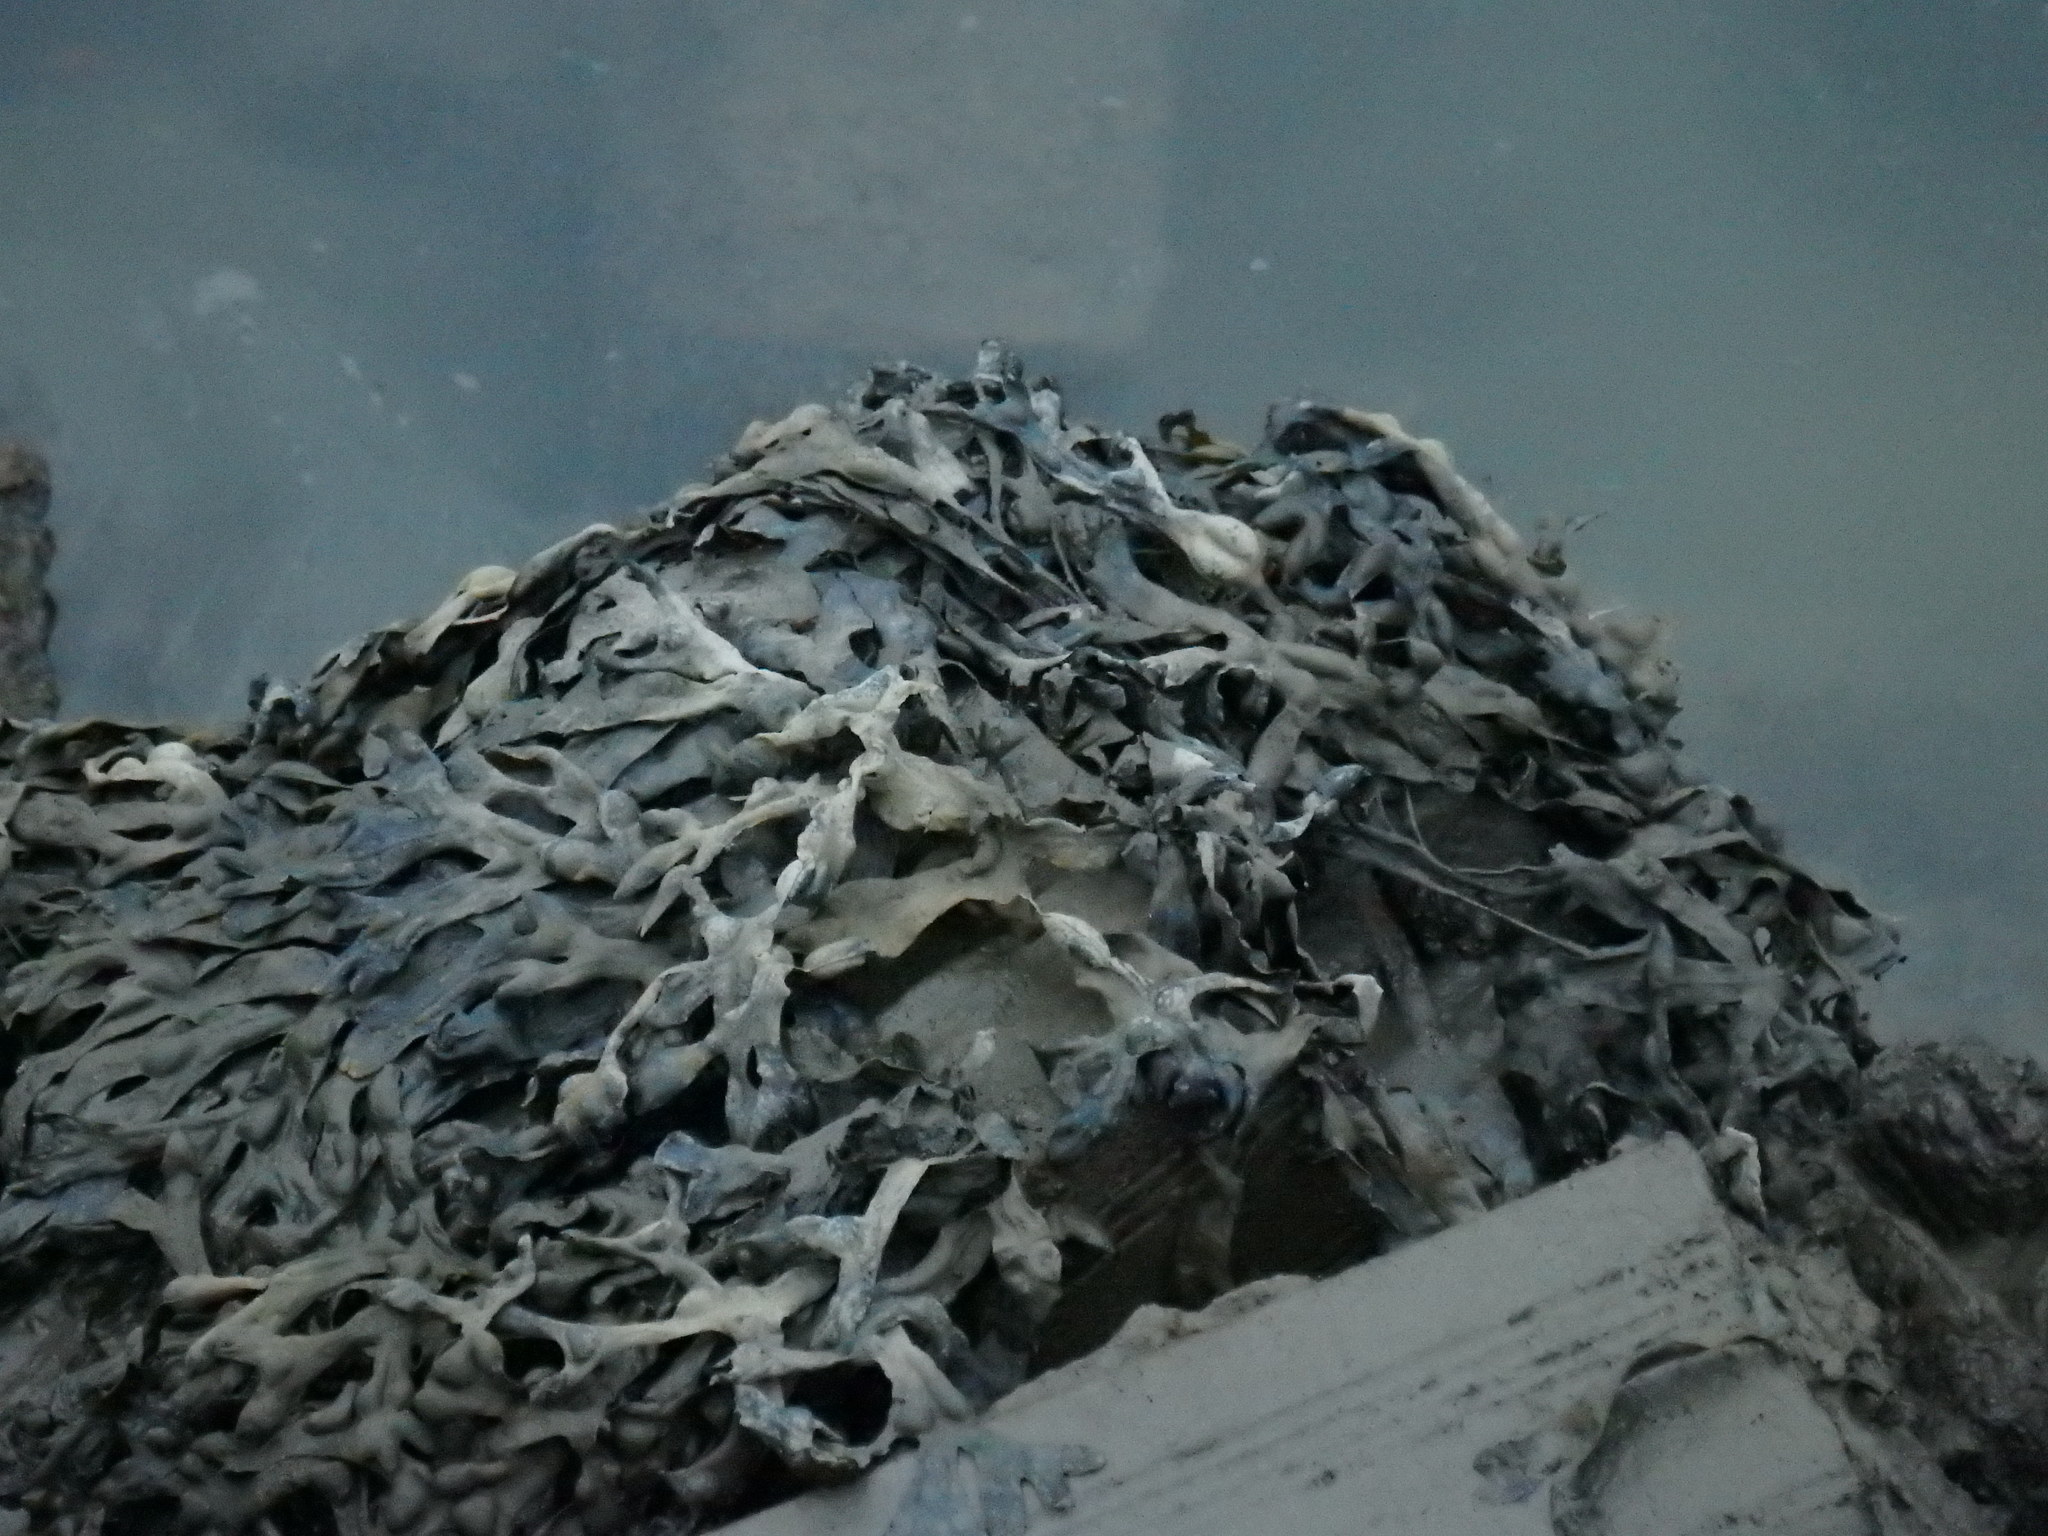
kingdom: Chromista
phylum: Ochrophyta
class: Phaeophyceae
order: Fucales
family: Fucaceae
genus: Fucus
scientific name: Fucus vesiculosus
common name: Bladder wrack
